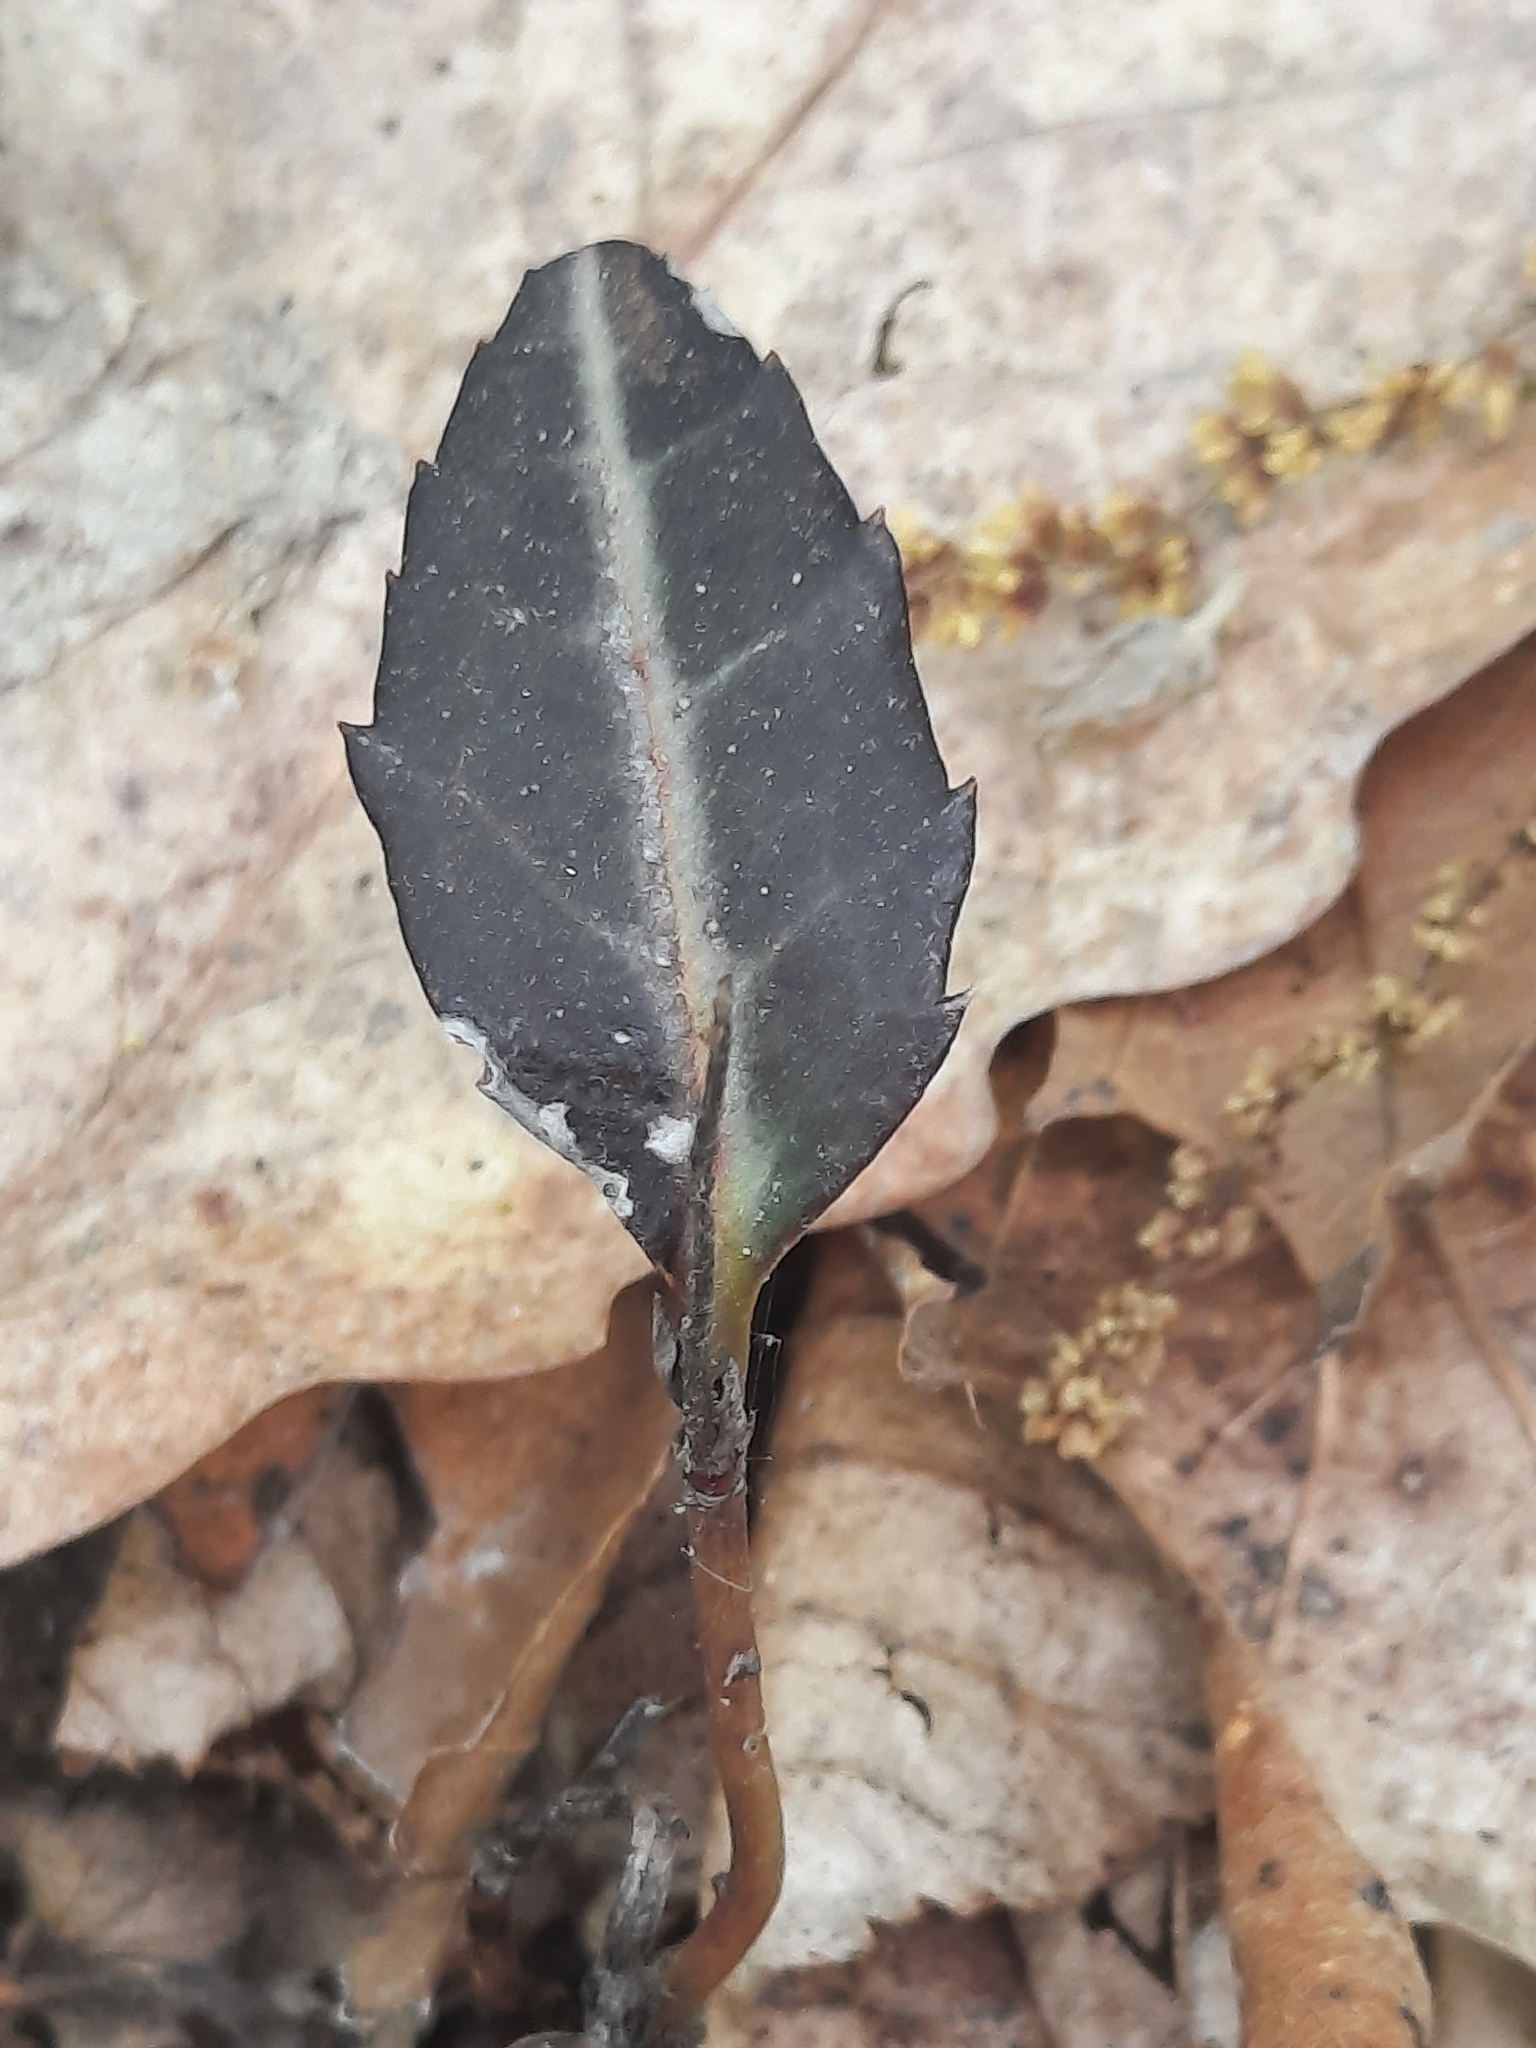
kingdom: Plantae
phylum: Tracheophyta
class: Magnoliopsida
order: Ericales
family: Ericaceae
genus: Chimaphila
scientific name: Chimaphila maculata
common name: Spotted pipsissewa
